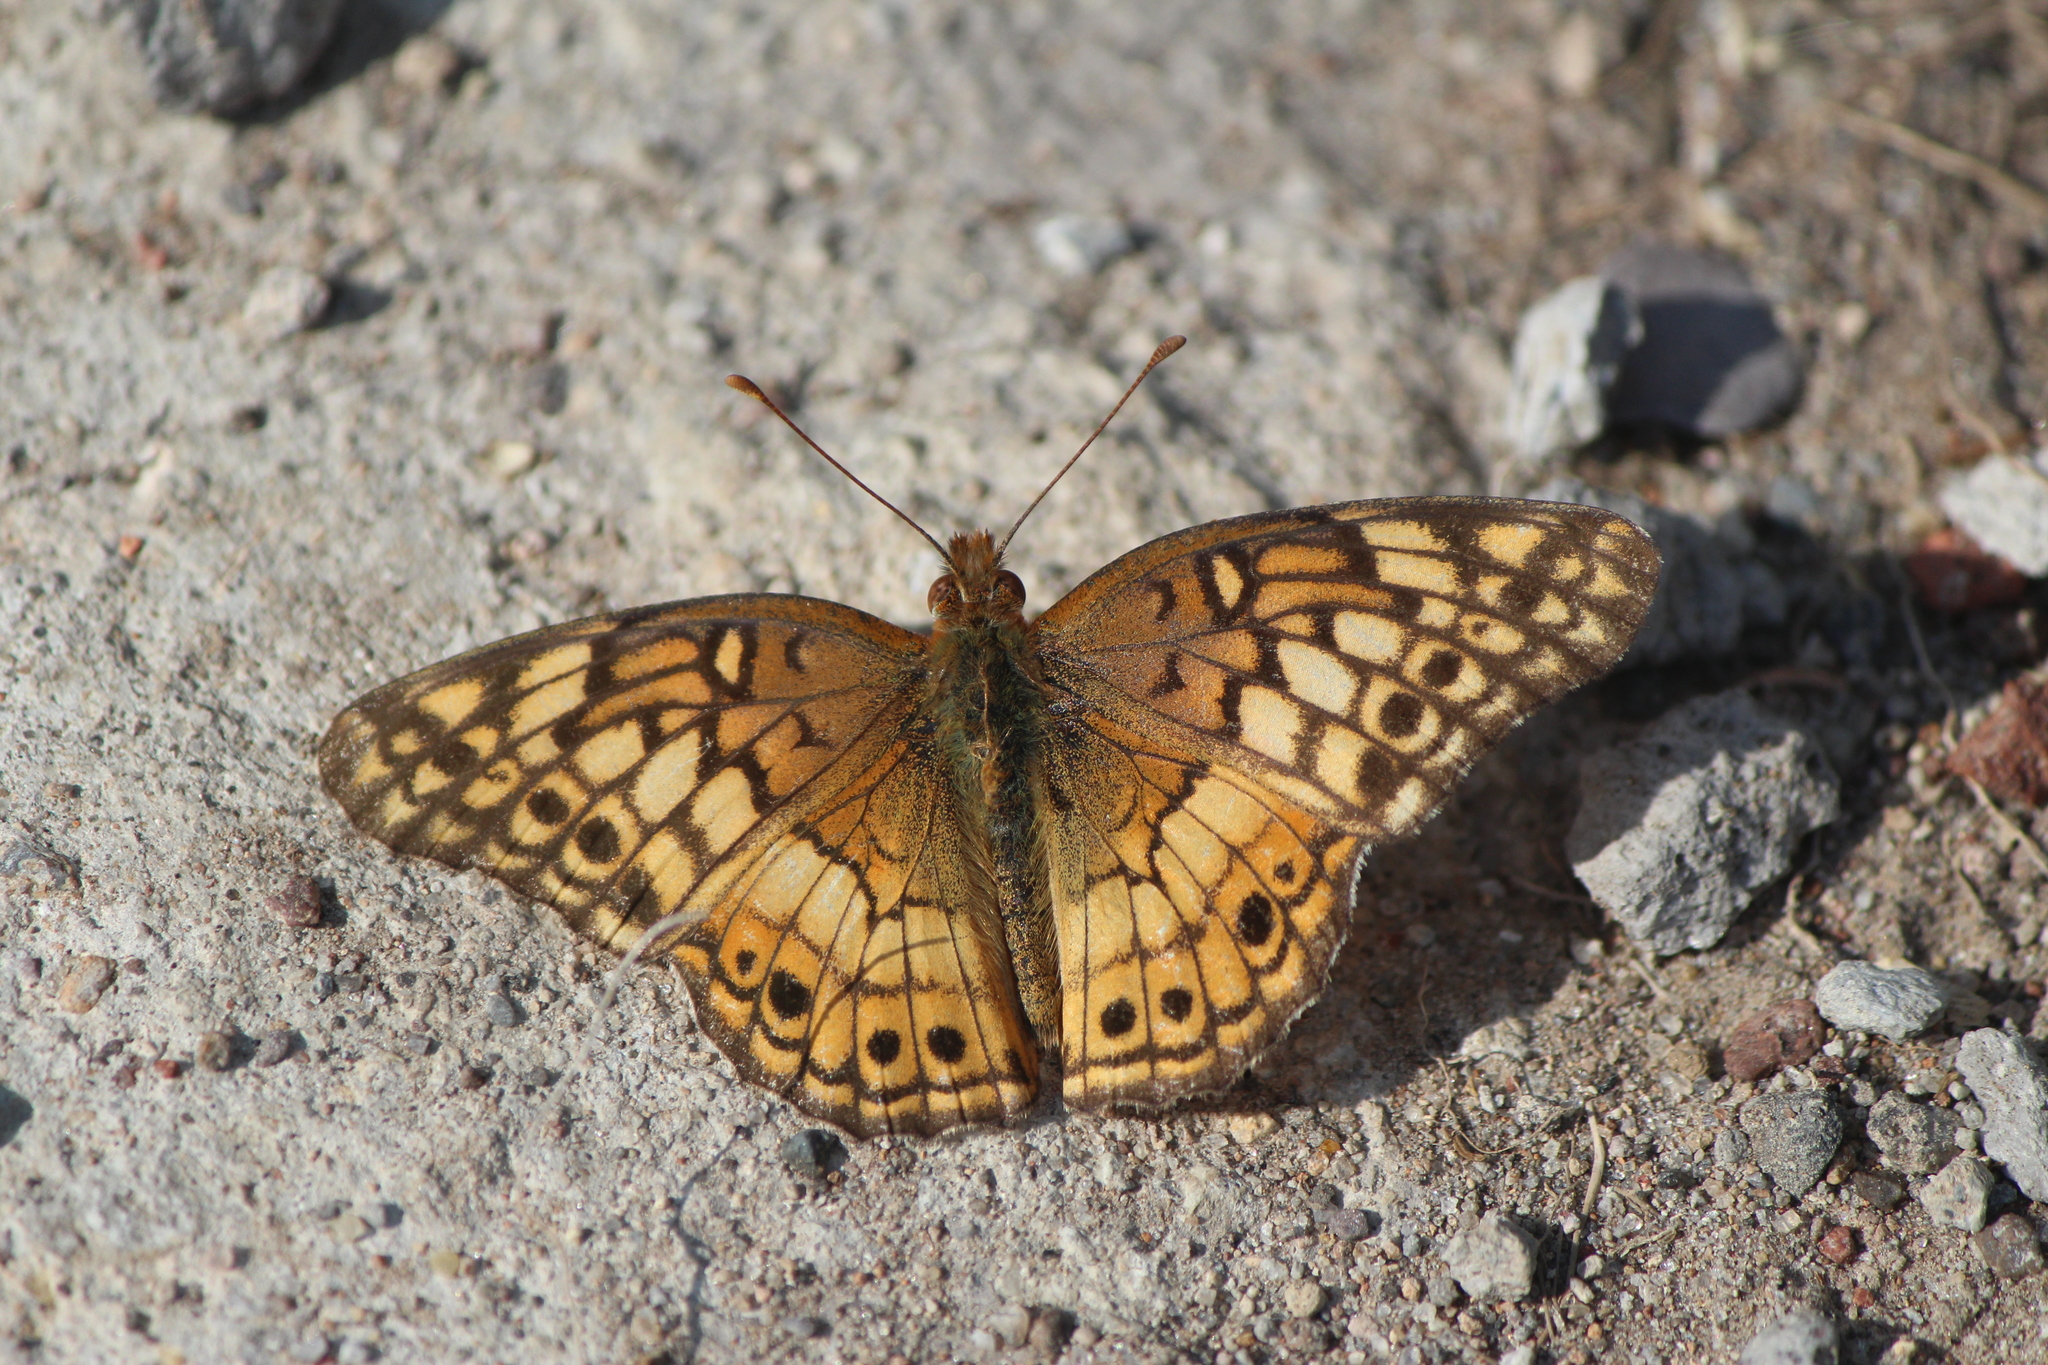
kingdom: Animalia
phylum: Arthropoda
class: Insecta
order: Lepidoptera
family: Nymphalidae
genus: Euptoieta
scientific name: Euptoieta claudia
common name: Variegated fritillary
